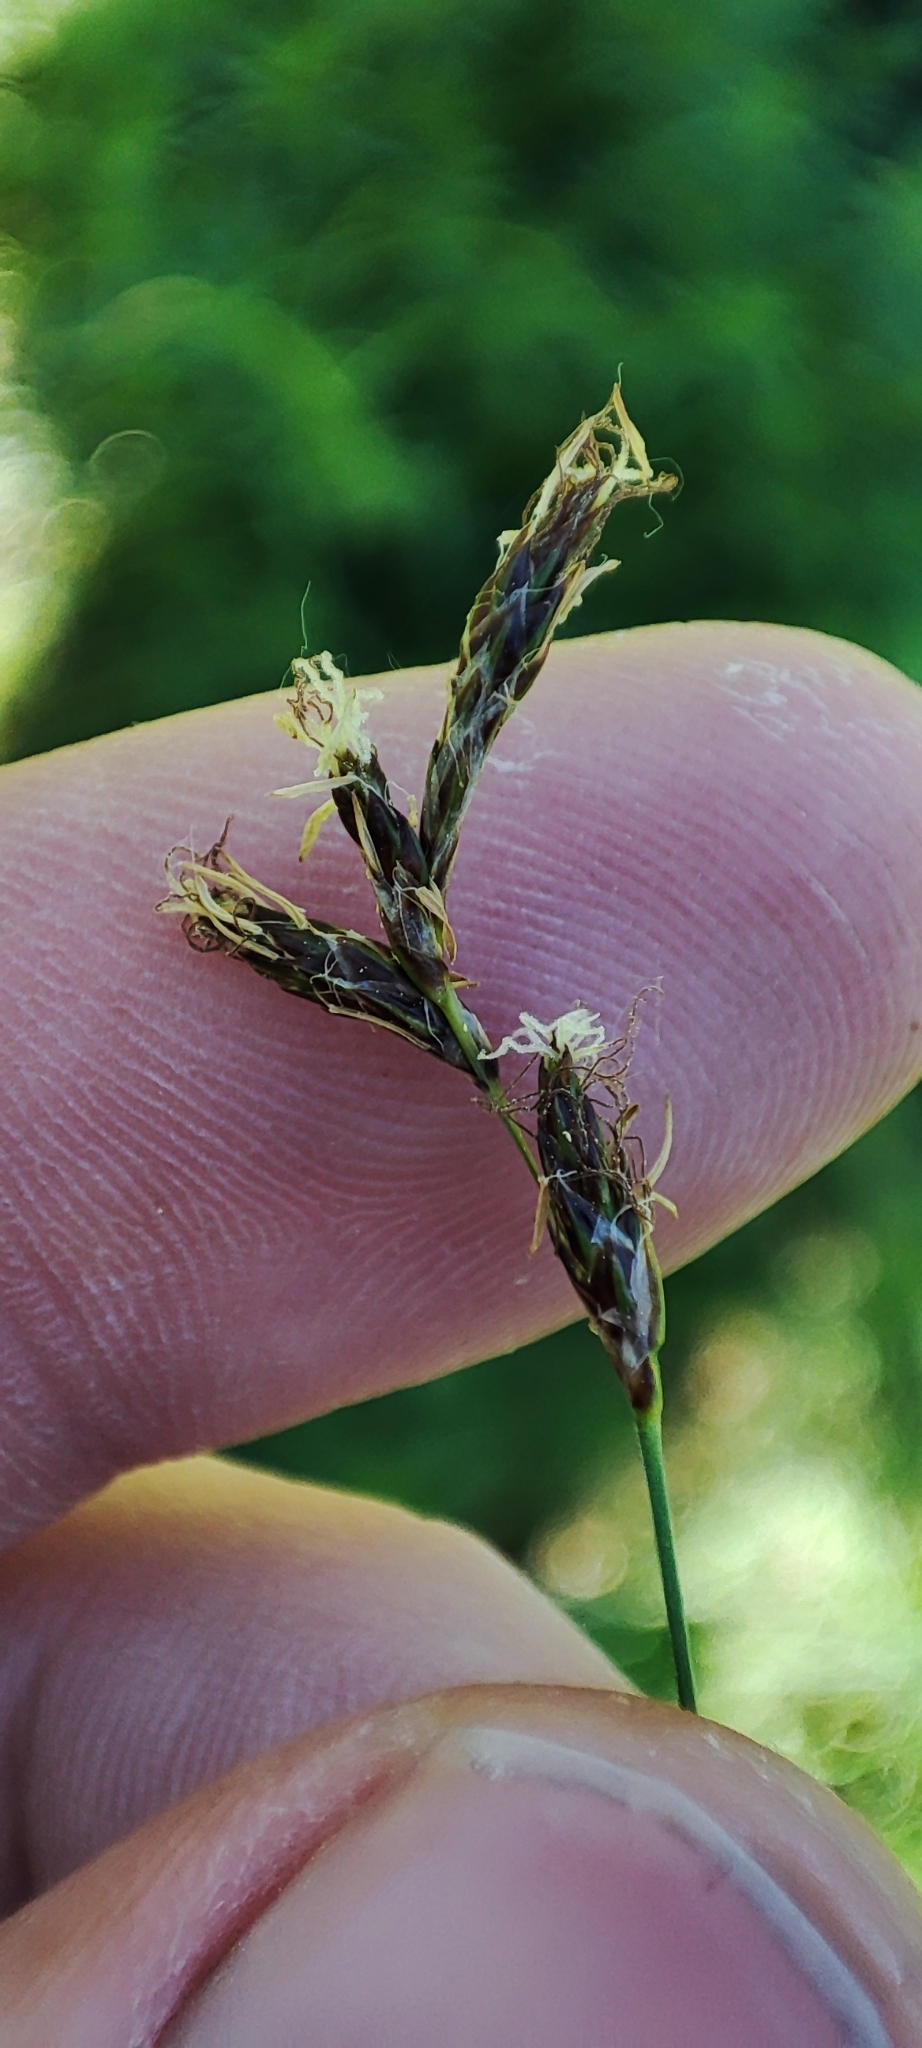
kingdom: Plantae
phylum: Tracheophyta
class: Liliopsida
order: Poales
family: Cyperaceae
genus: Carex
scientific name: Carex praecox
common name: Early sedge
